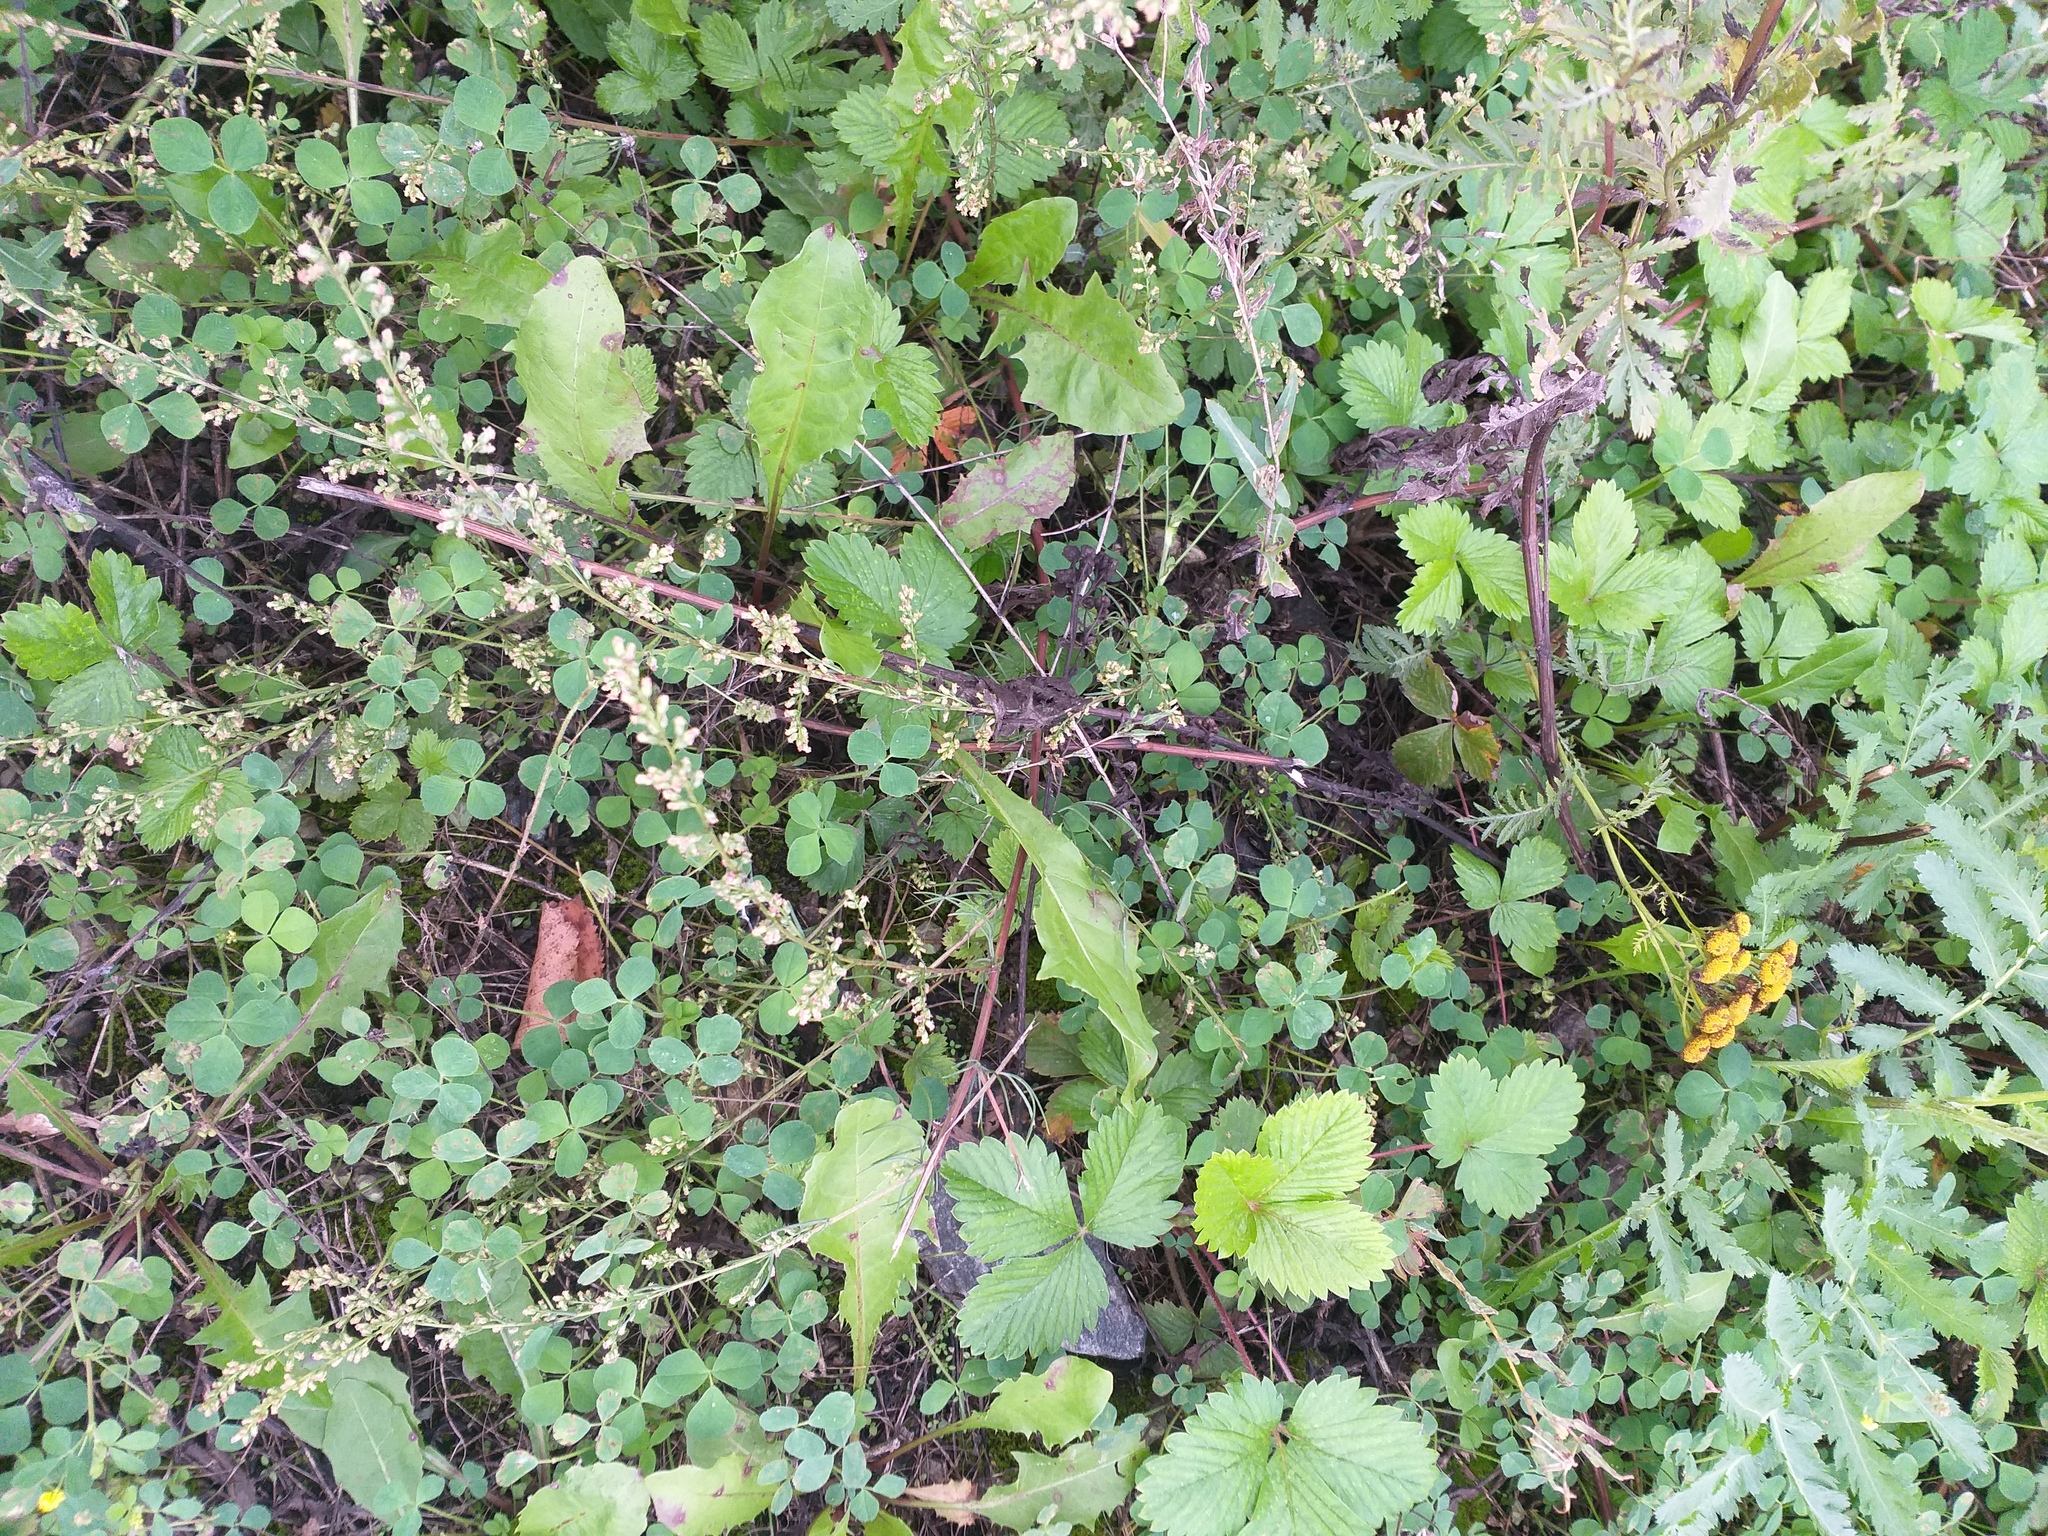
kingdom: Plantae
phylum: Tracheophyta
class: Magnoliopsida
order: Asterales
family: Asteraceae
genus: Artemisia
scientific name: Artemisia campestris
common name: Field wormwood
